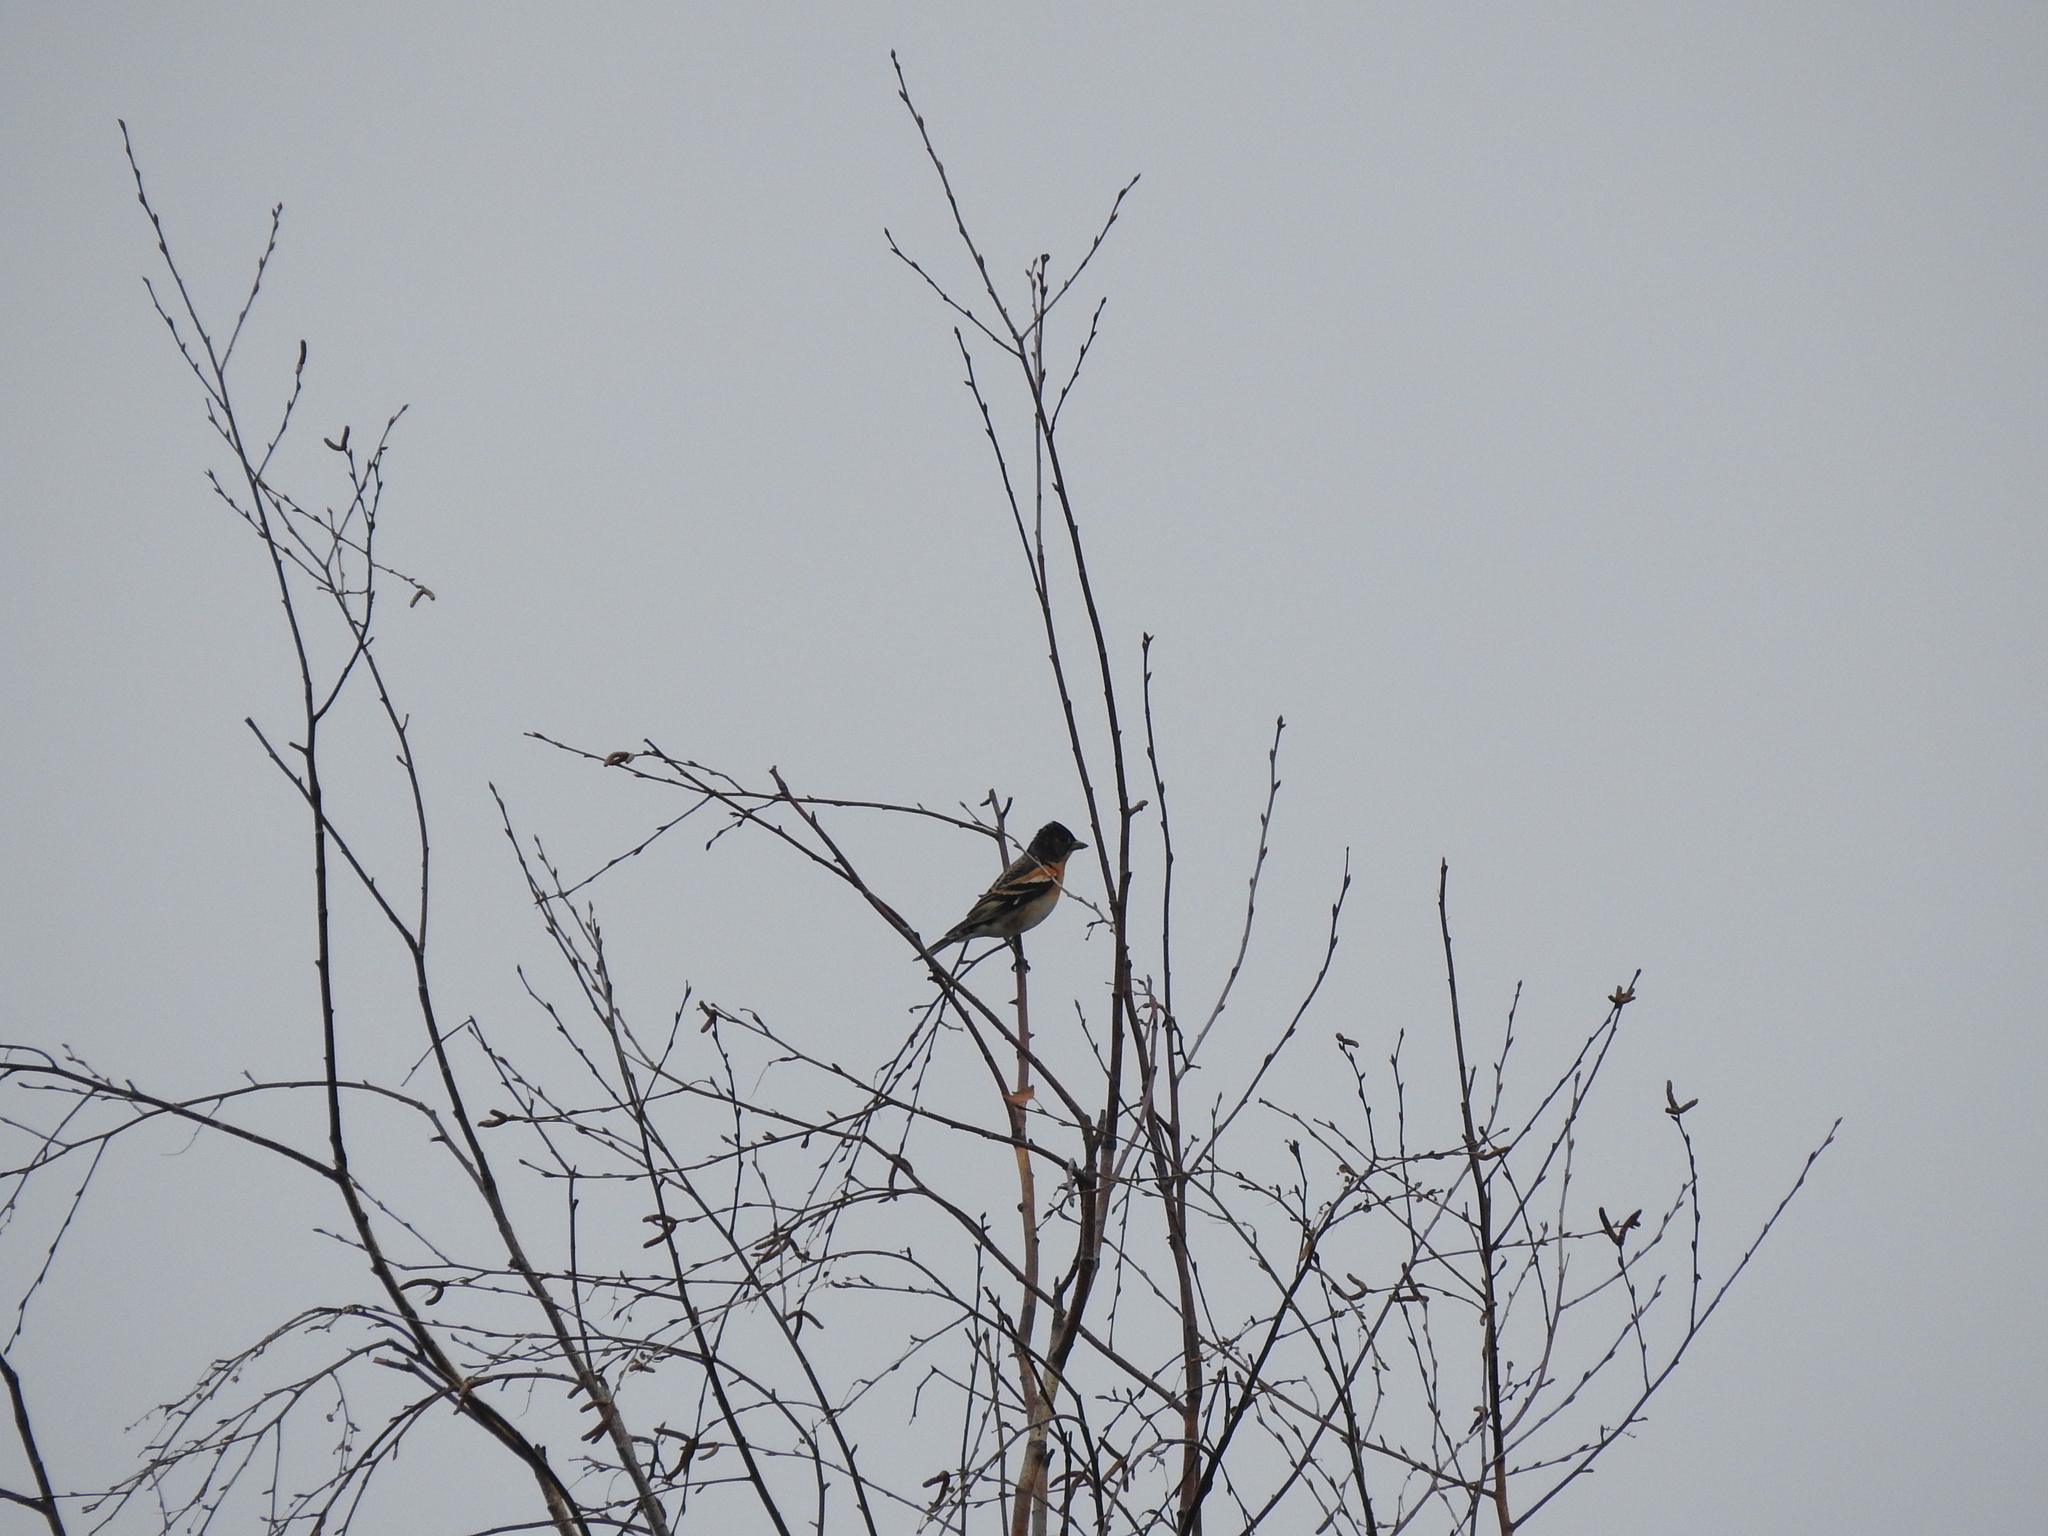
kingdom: Animalia
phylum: Chordata
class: Aves
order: Passeriformes
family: Fringillidae
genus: Fringilla
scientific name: Fringilla montifringilla
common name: Brambling
